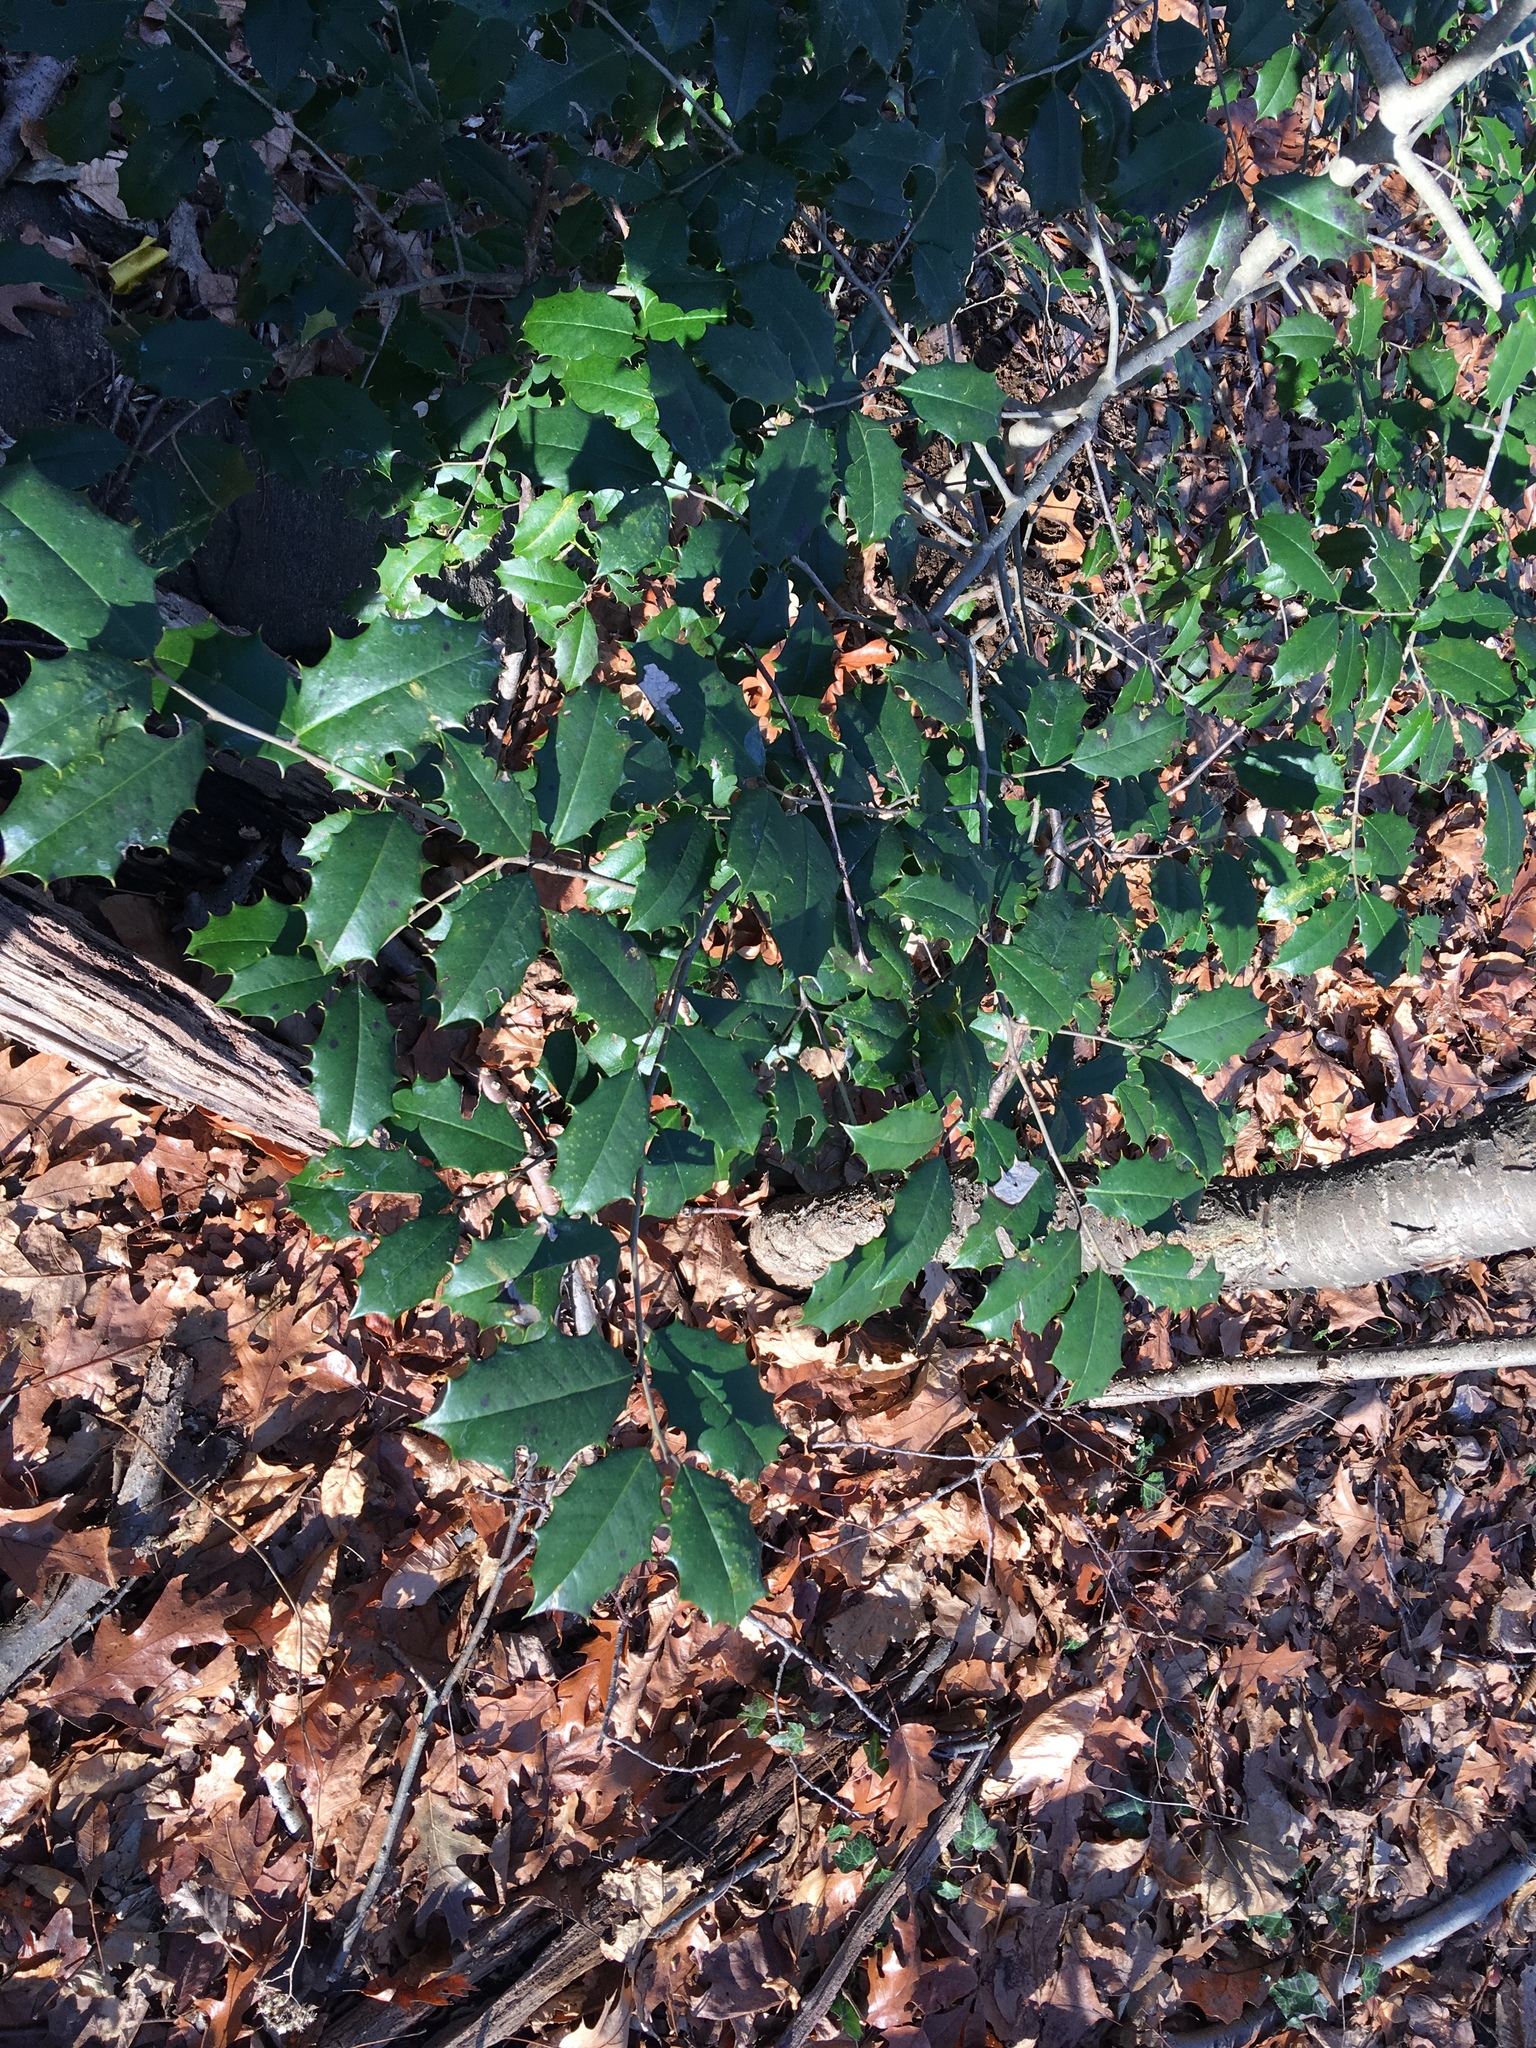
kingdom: Plantae
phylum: Tracheophyta
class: Magnoliopsida
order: Aquifoliales
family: Aquifoliaceae
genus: Ilex
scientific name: Ilex opaca
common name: American holly
